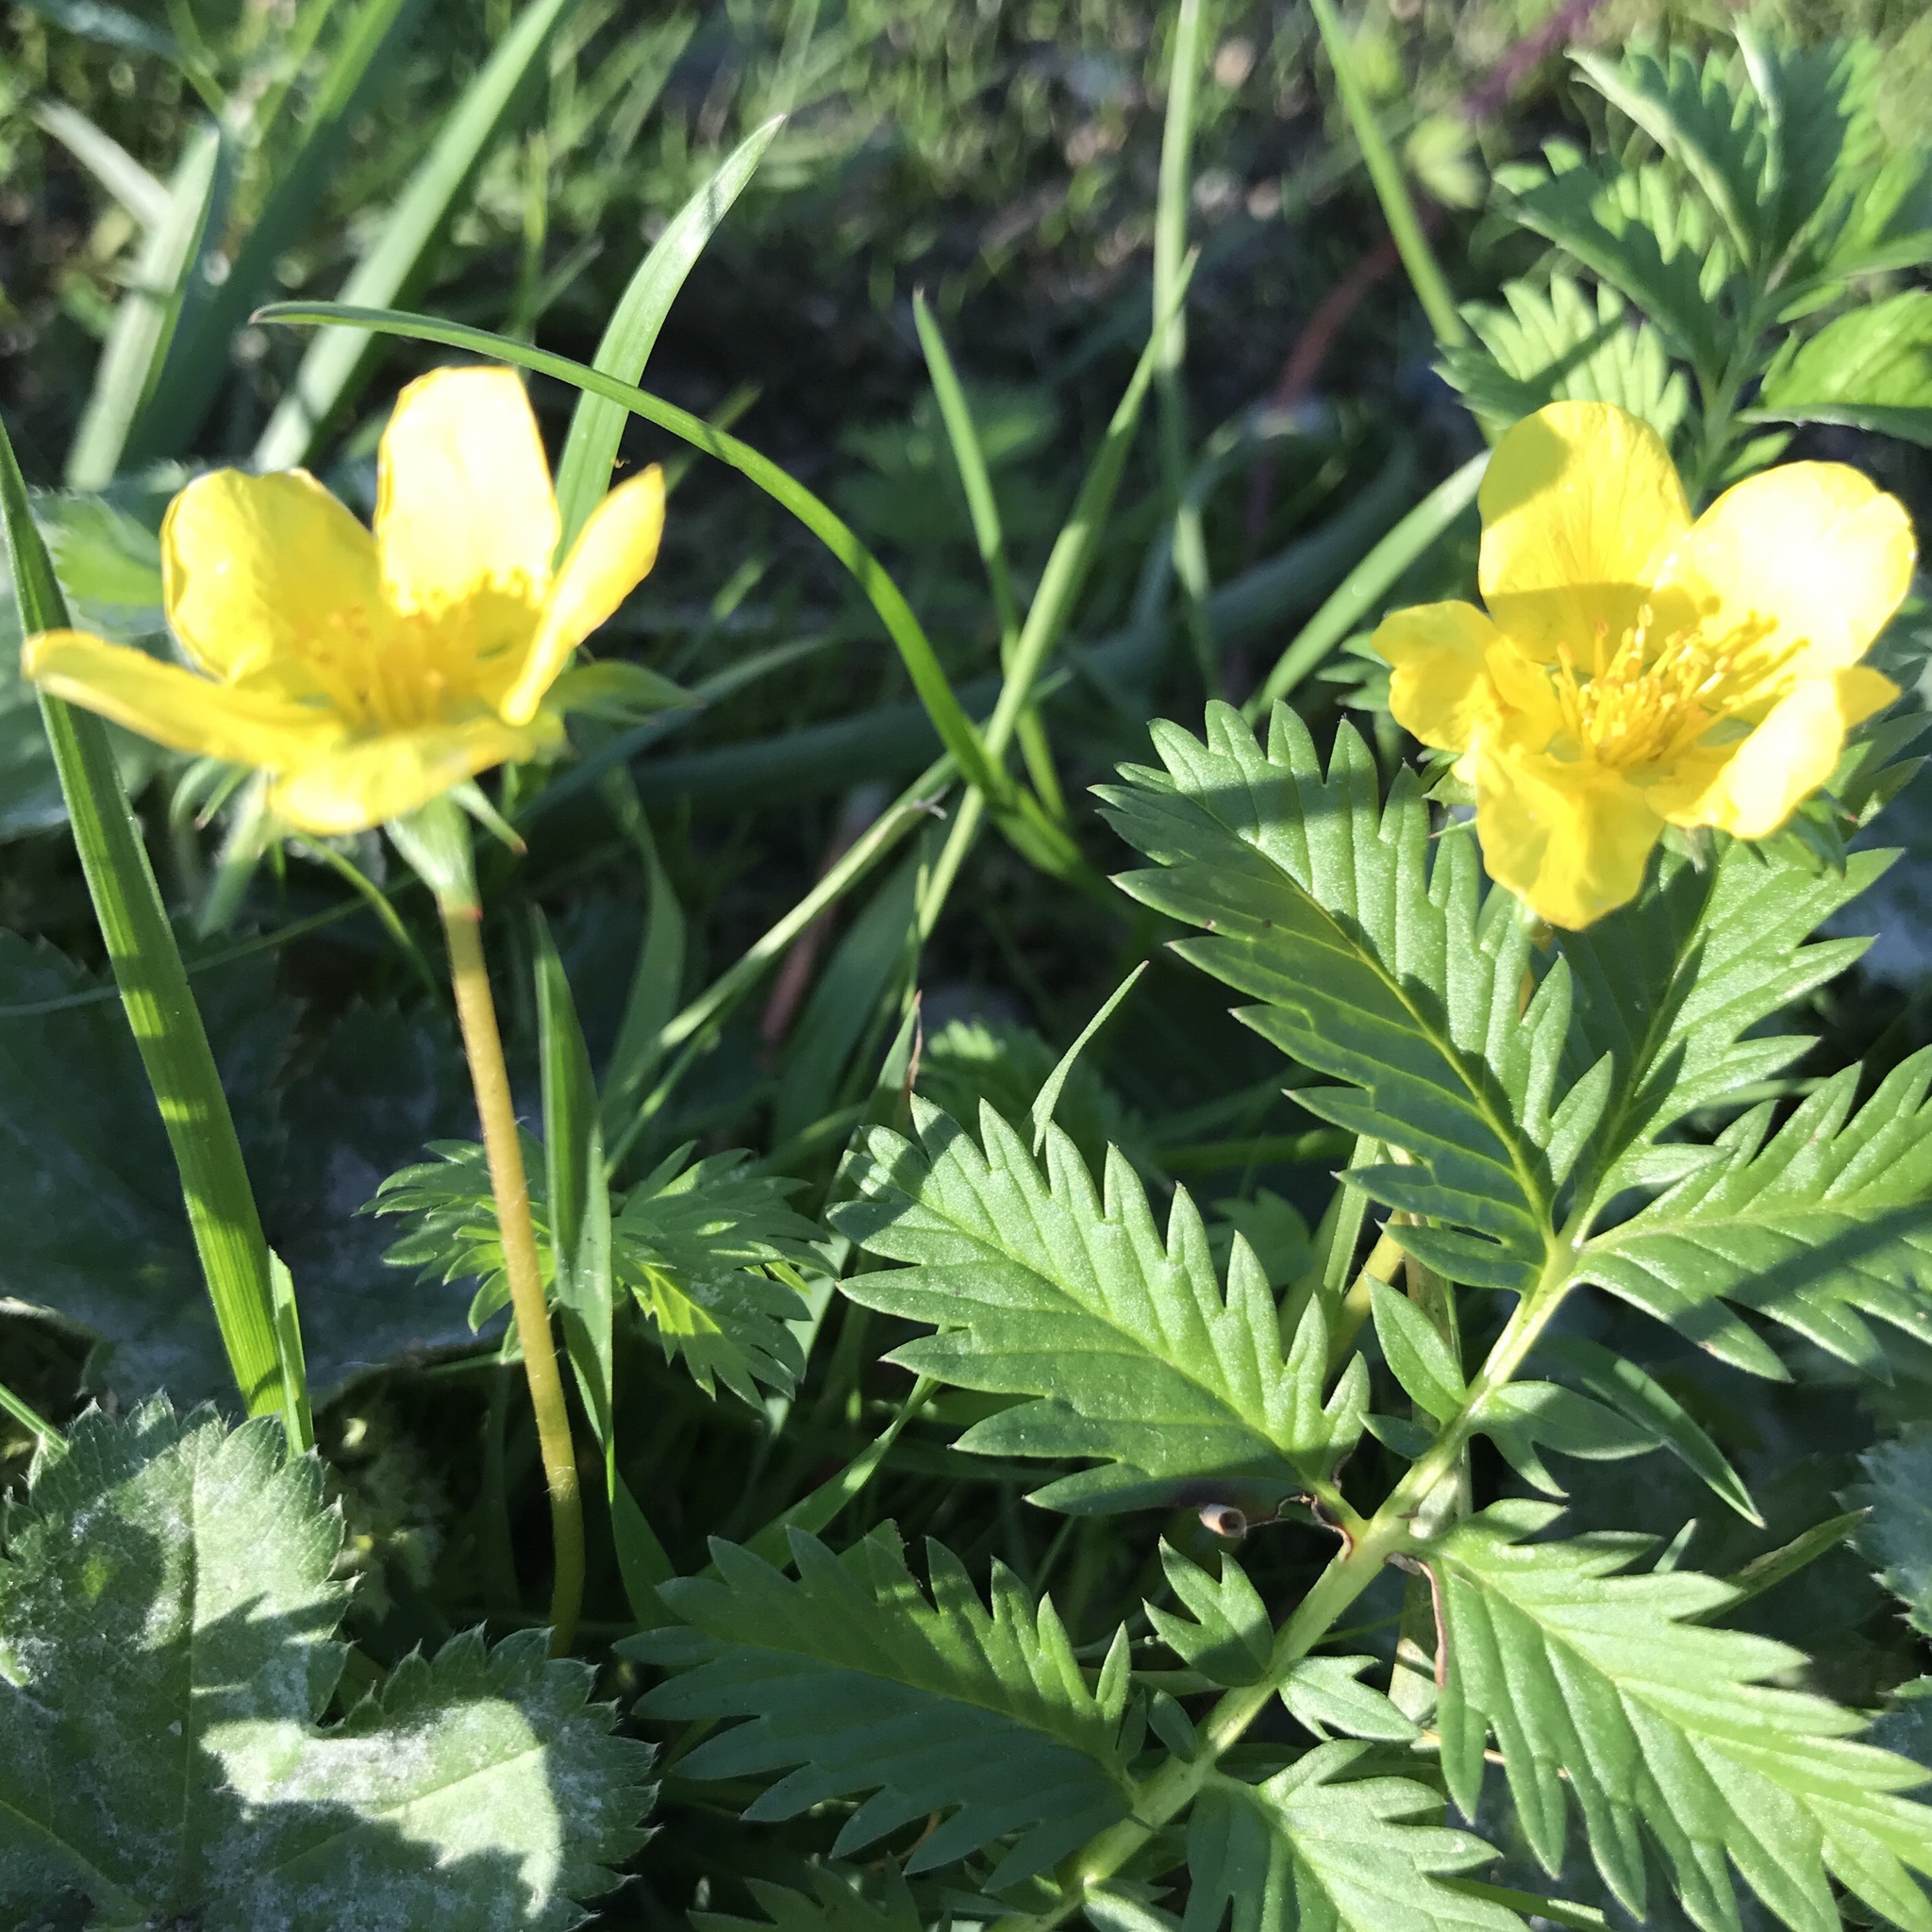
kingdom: Plantae
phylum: Tracheophyta
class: Magnoliopsida
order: Rosales
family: Rosaceae
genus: Argentina
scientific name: Argentina anserina
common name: Common silverweed
